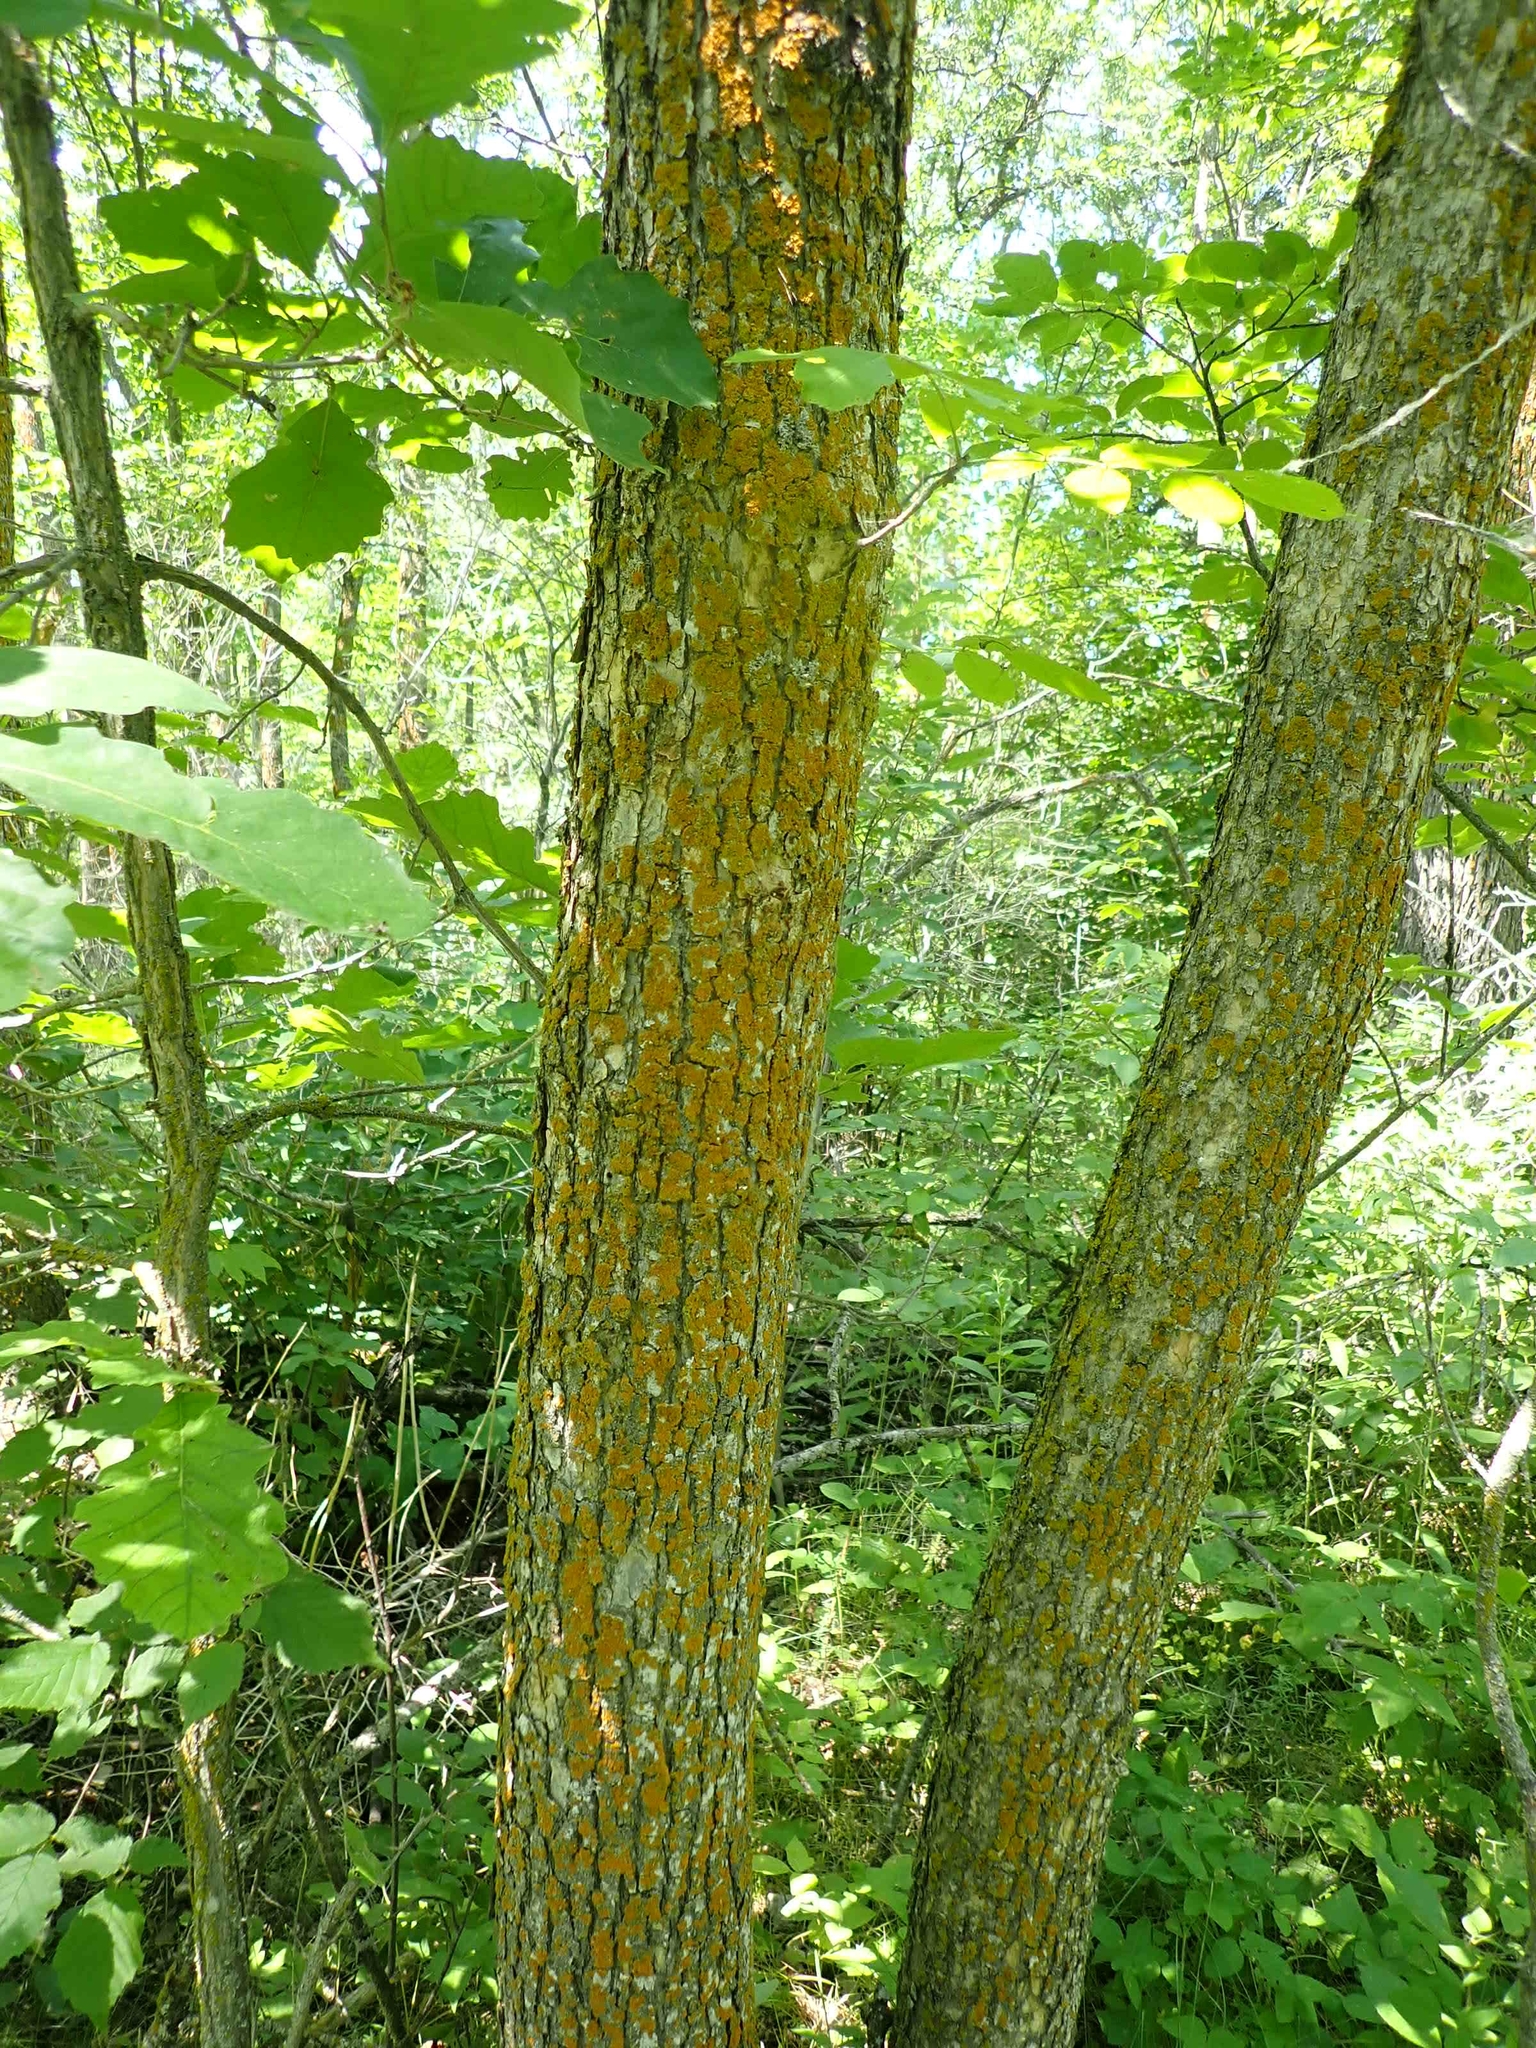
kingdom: Plantae
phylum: Tracheophyta
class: Magnoliopsida
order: Lamiales
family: Oleaceae
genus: Fraxinus
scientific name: Fraxinus pennsylvanica
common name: Green ash
